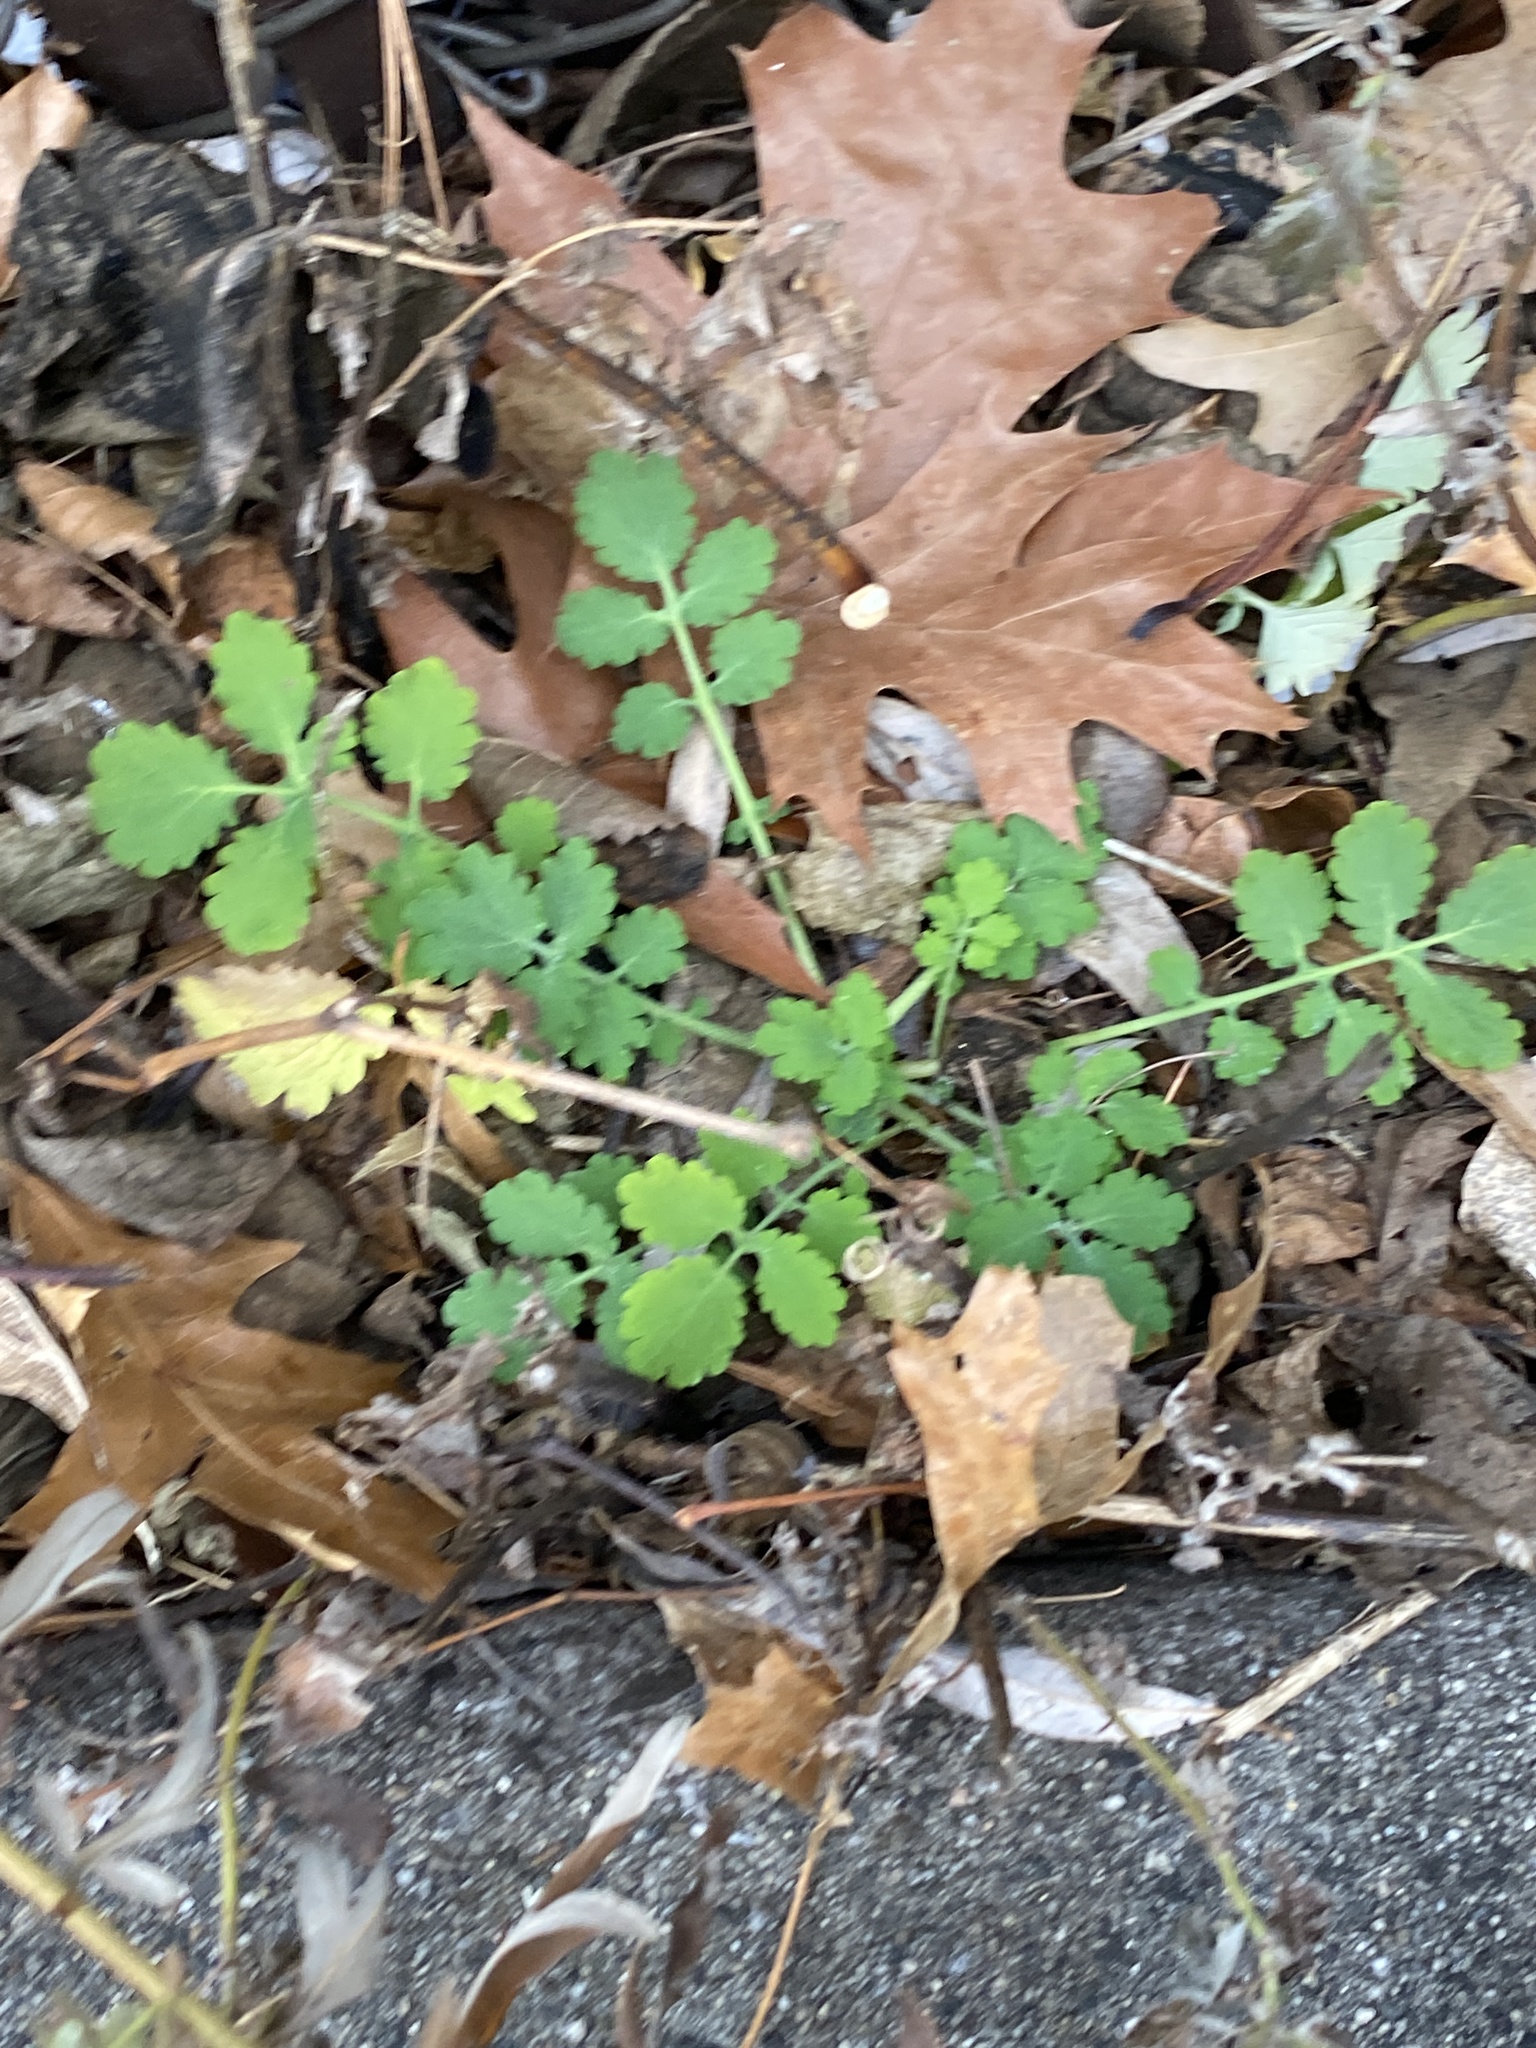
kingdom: Plantae
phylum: Tracheophyta
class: Magnoliopsida
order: Ranunculales
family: Papaveraceae
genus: Chelidonium
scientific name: Chelidonium majus
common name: Greater celandine
